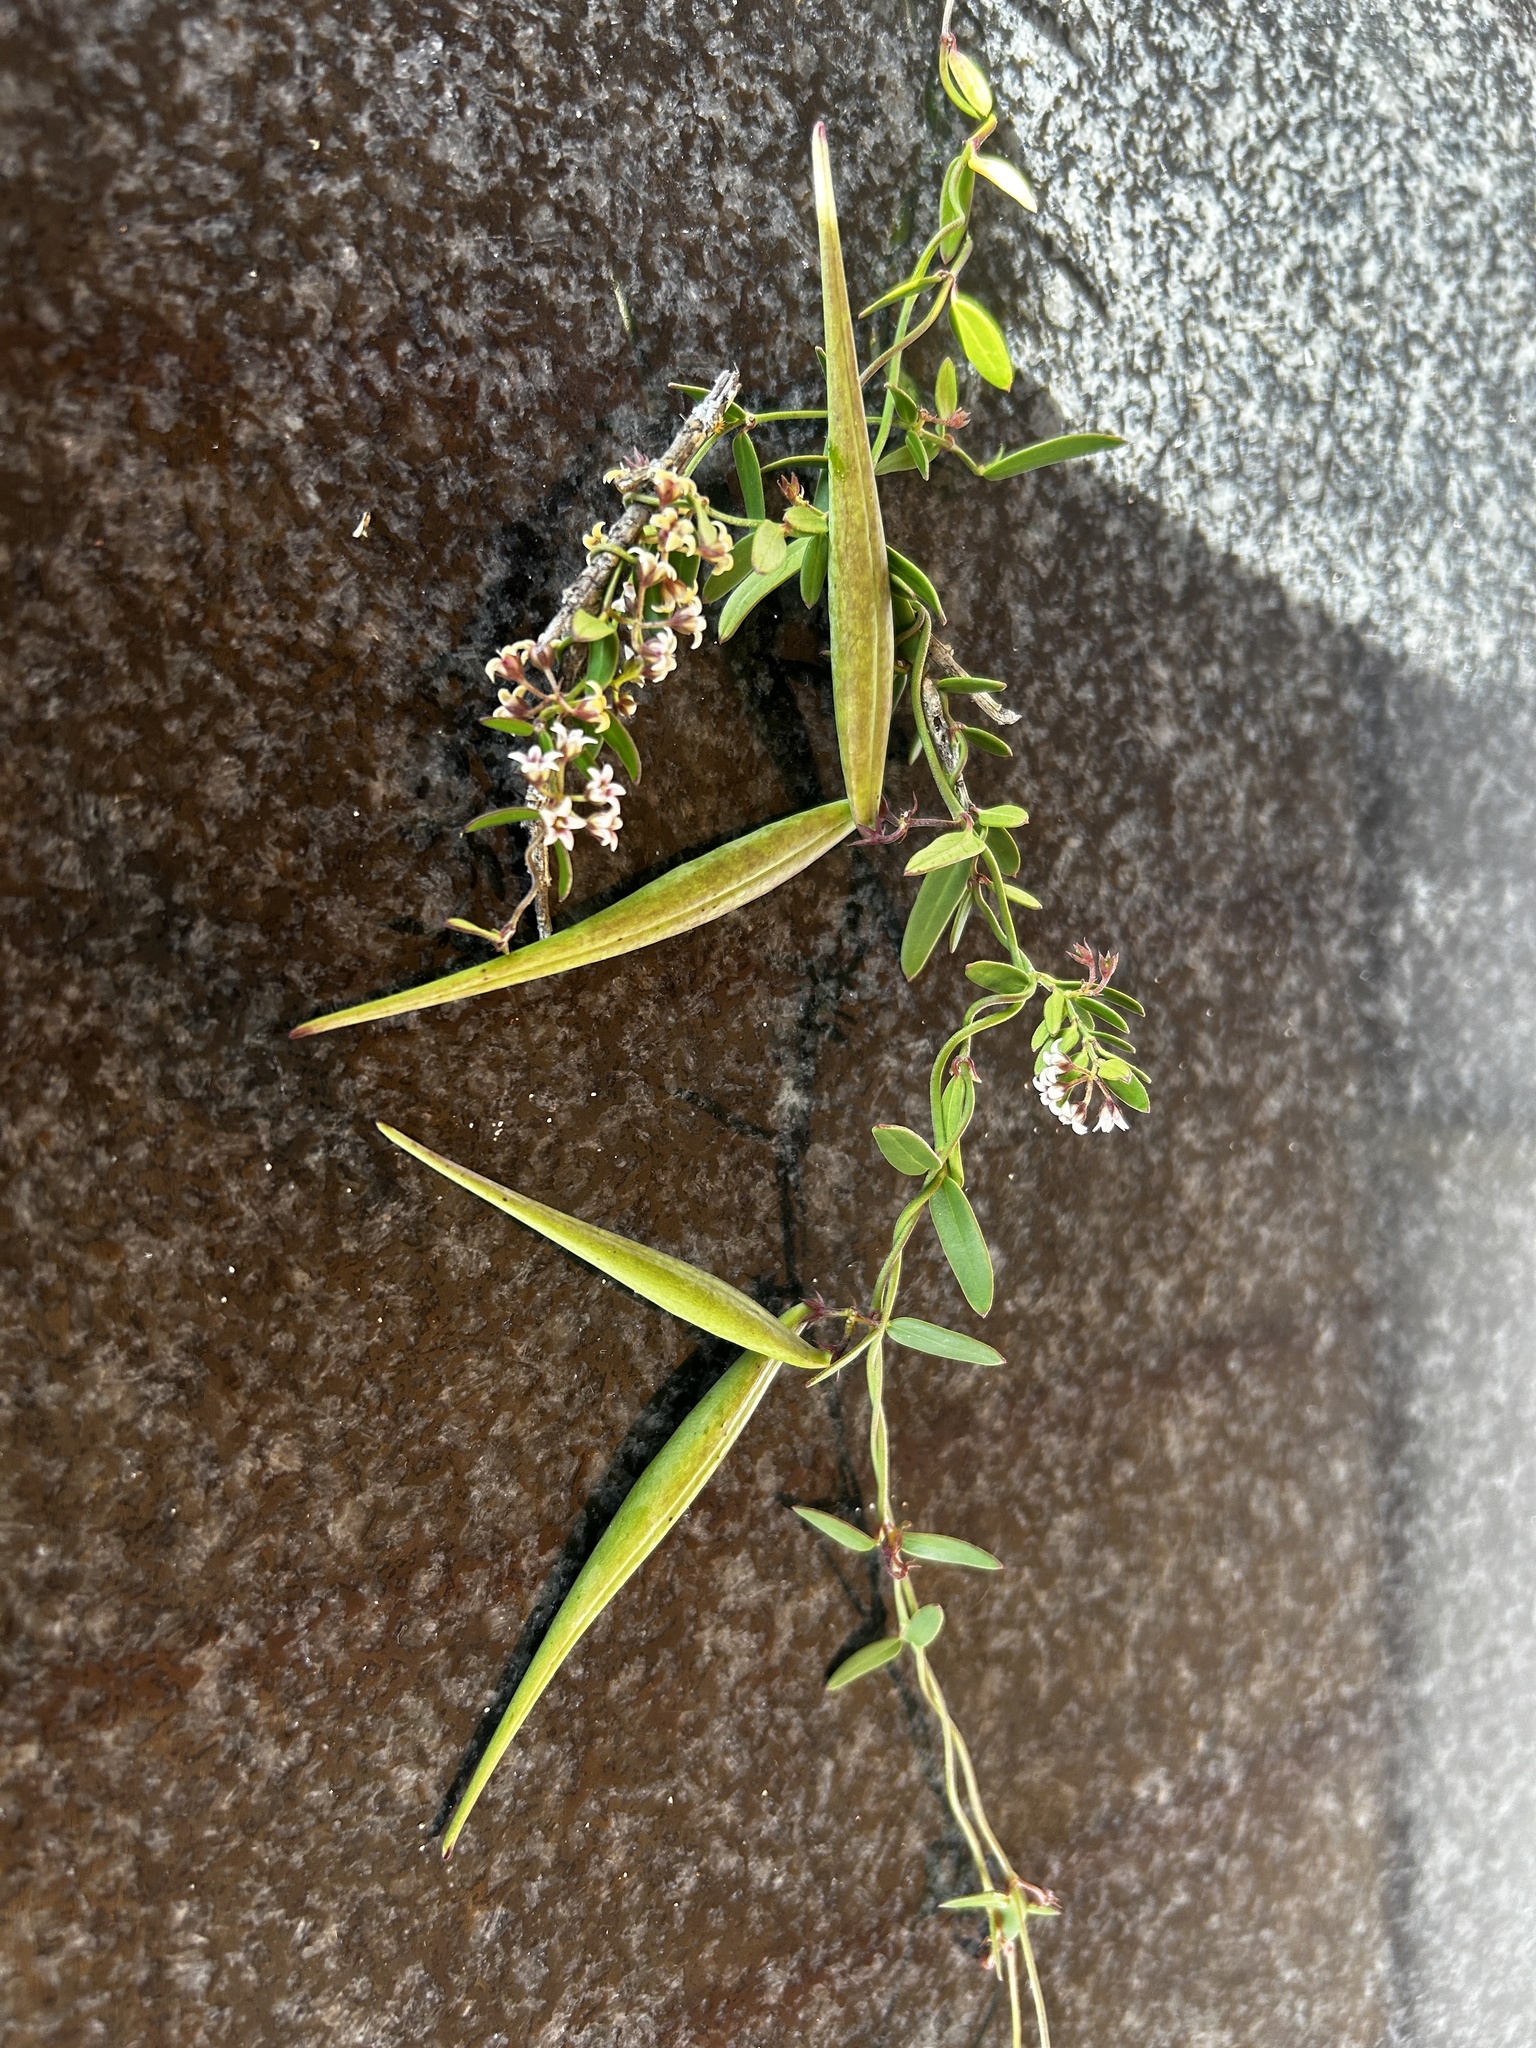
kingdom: Plantae
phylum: Tracheophyta
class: Magnoliopsida
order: Gentianales
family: Apocynaceae
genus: Astephanus
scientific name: Astephanus triflorus
